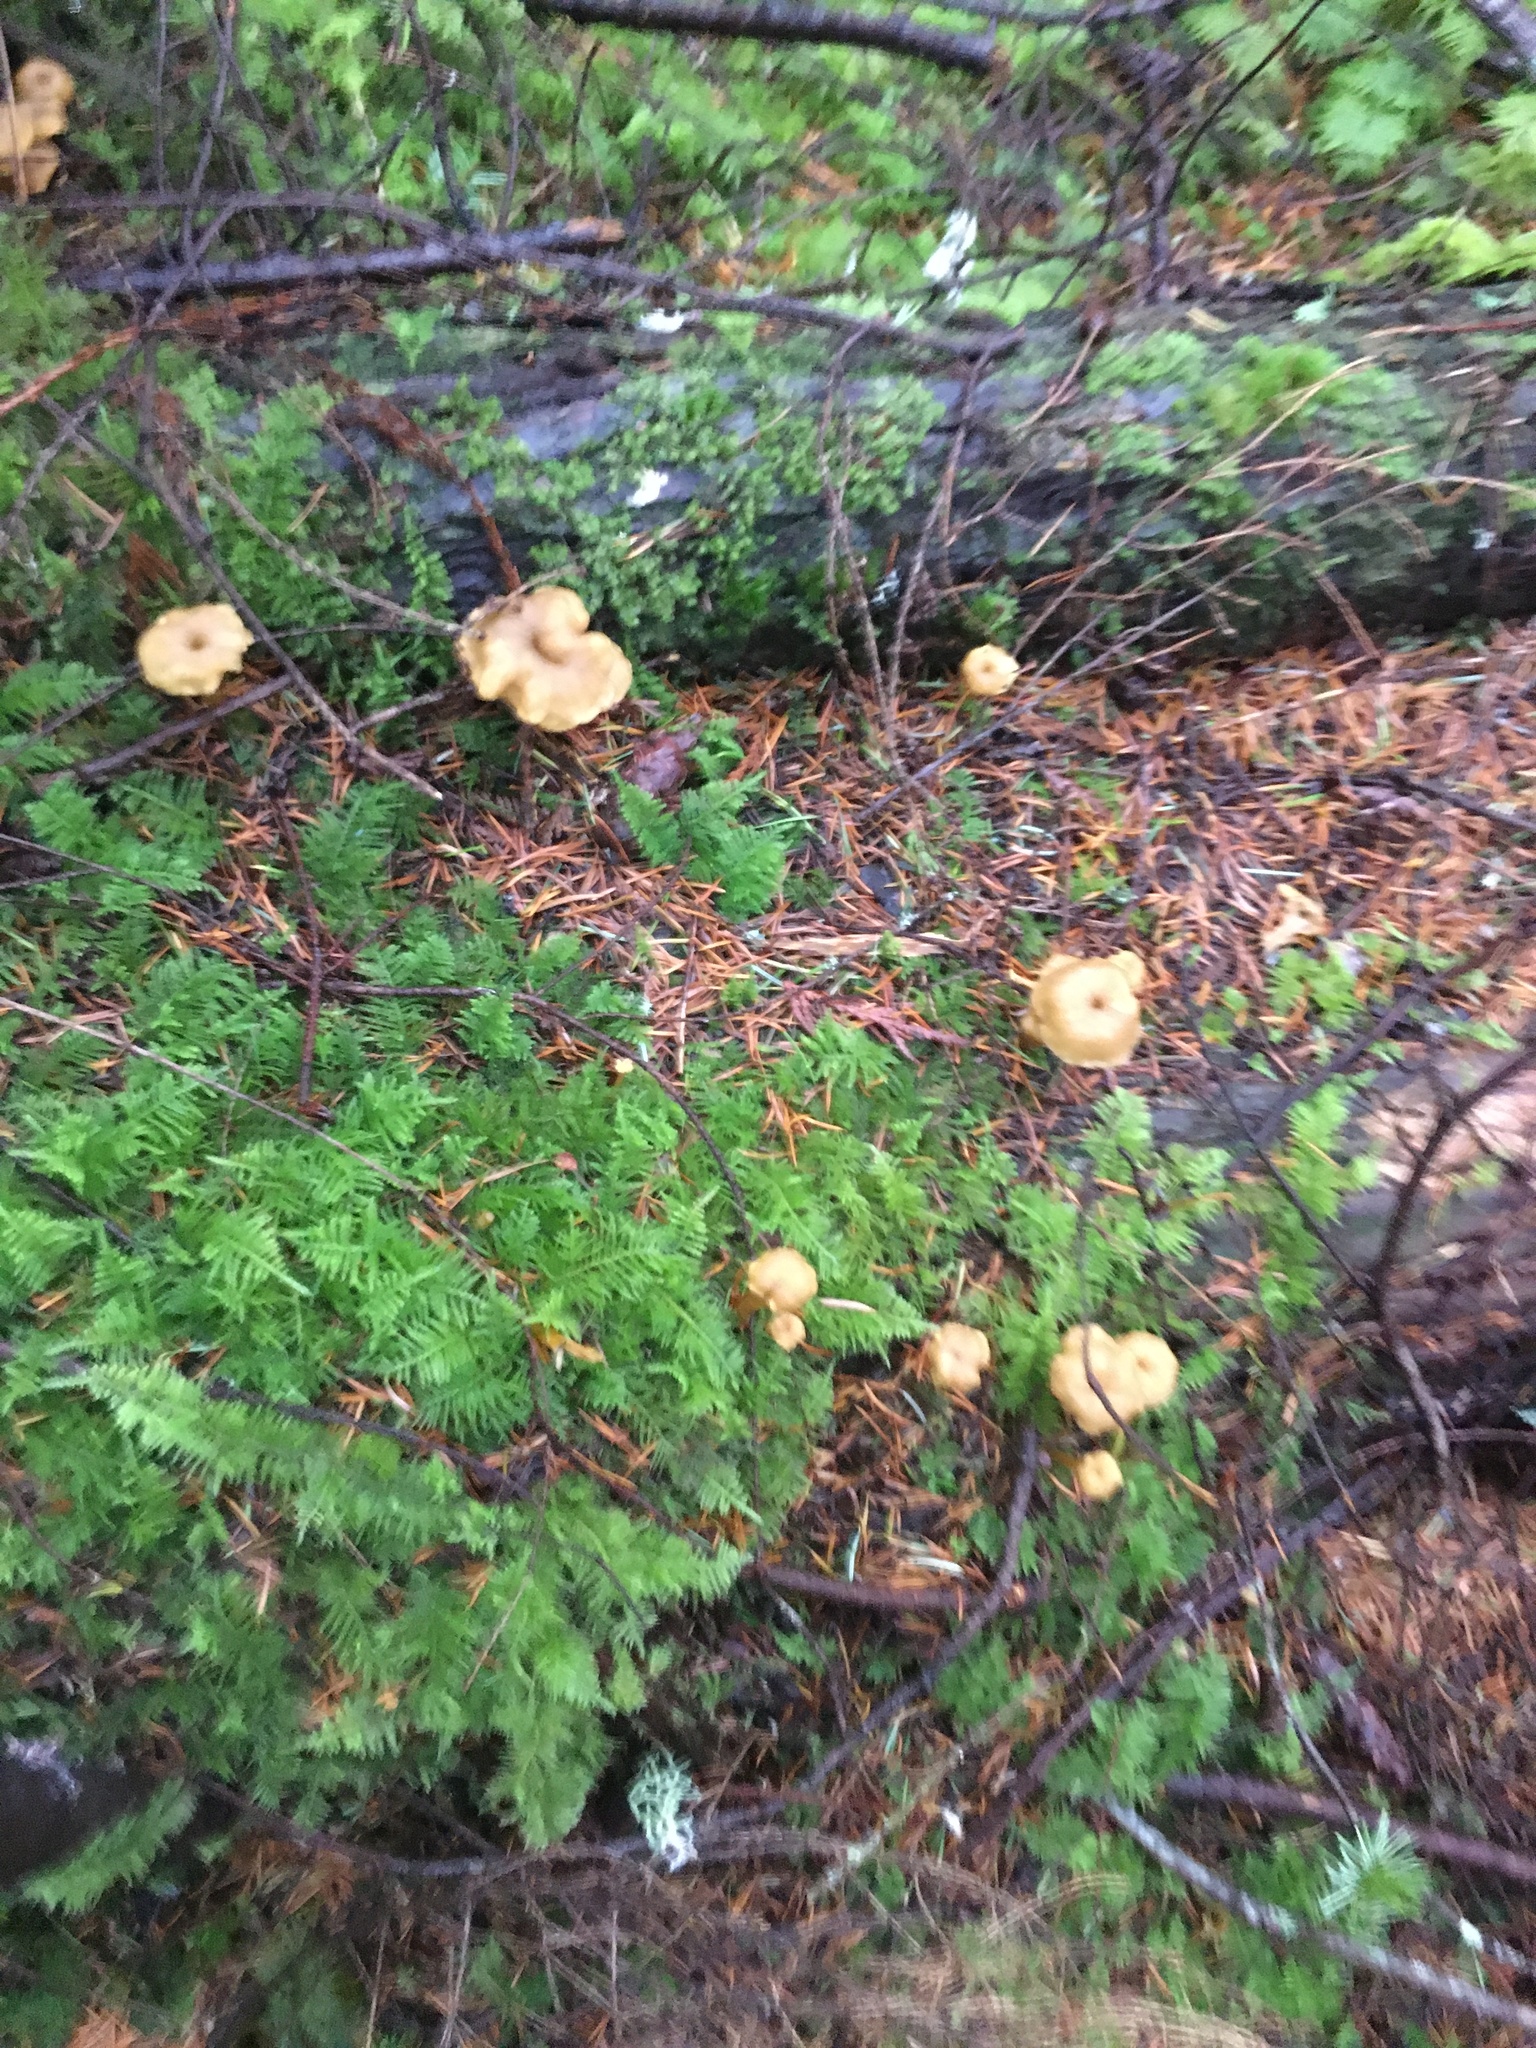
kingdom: Fungi
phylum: Basidiomycota
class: Agaricomycetes
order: Cantharellales
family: Hydnaceae
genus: Craterellus
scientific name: Craterellus tubaeformis
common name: Yellowfoot
